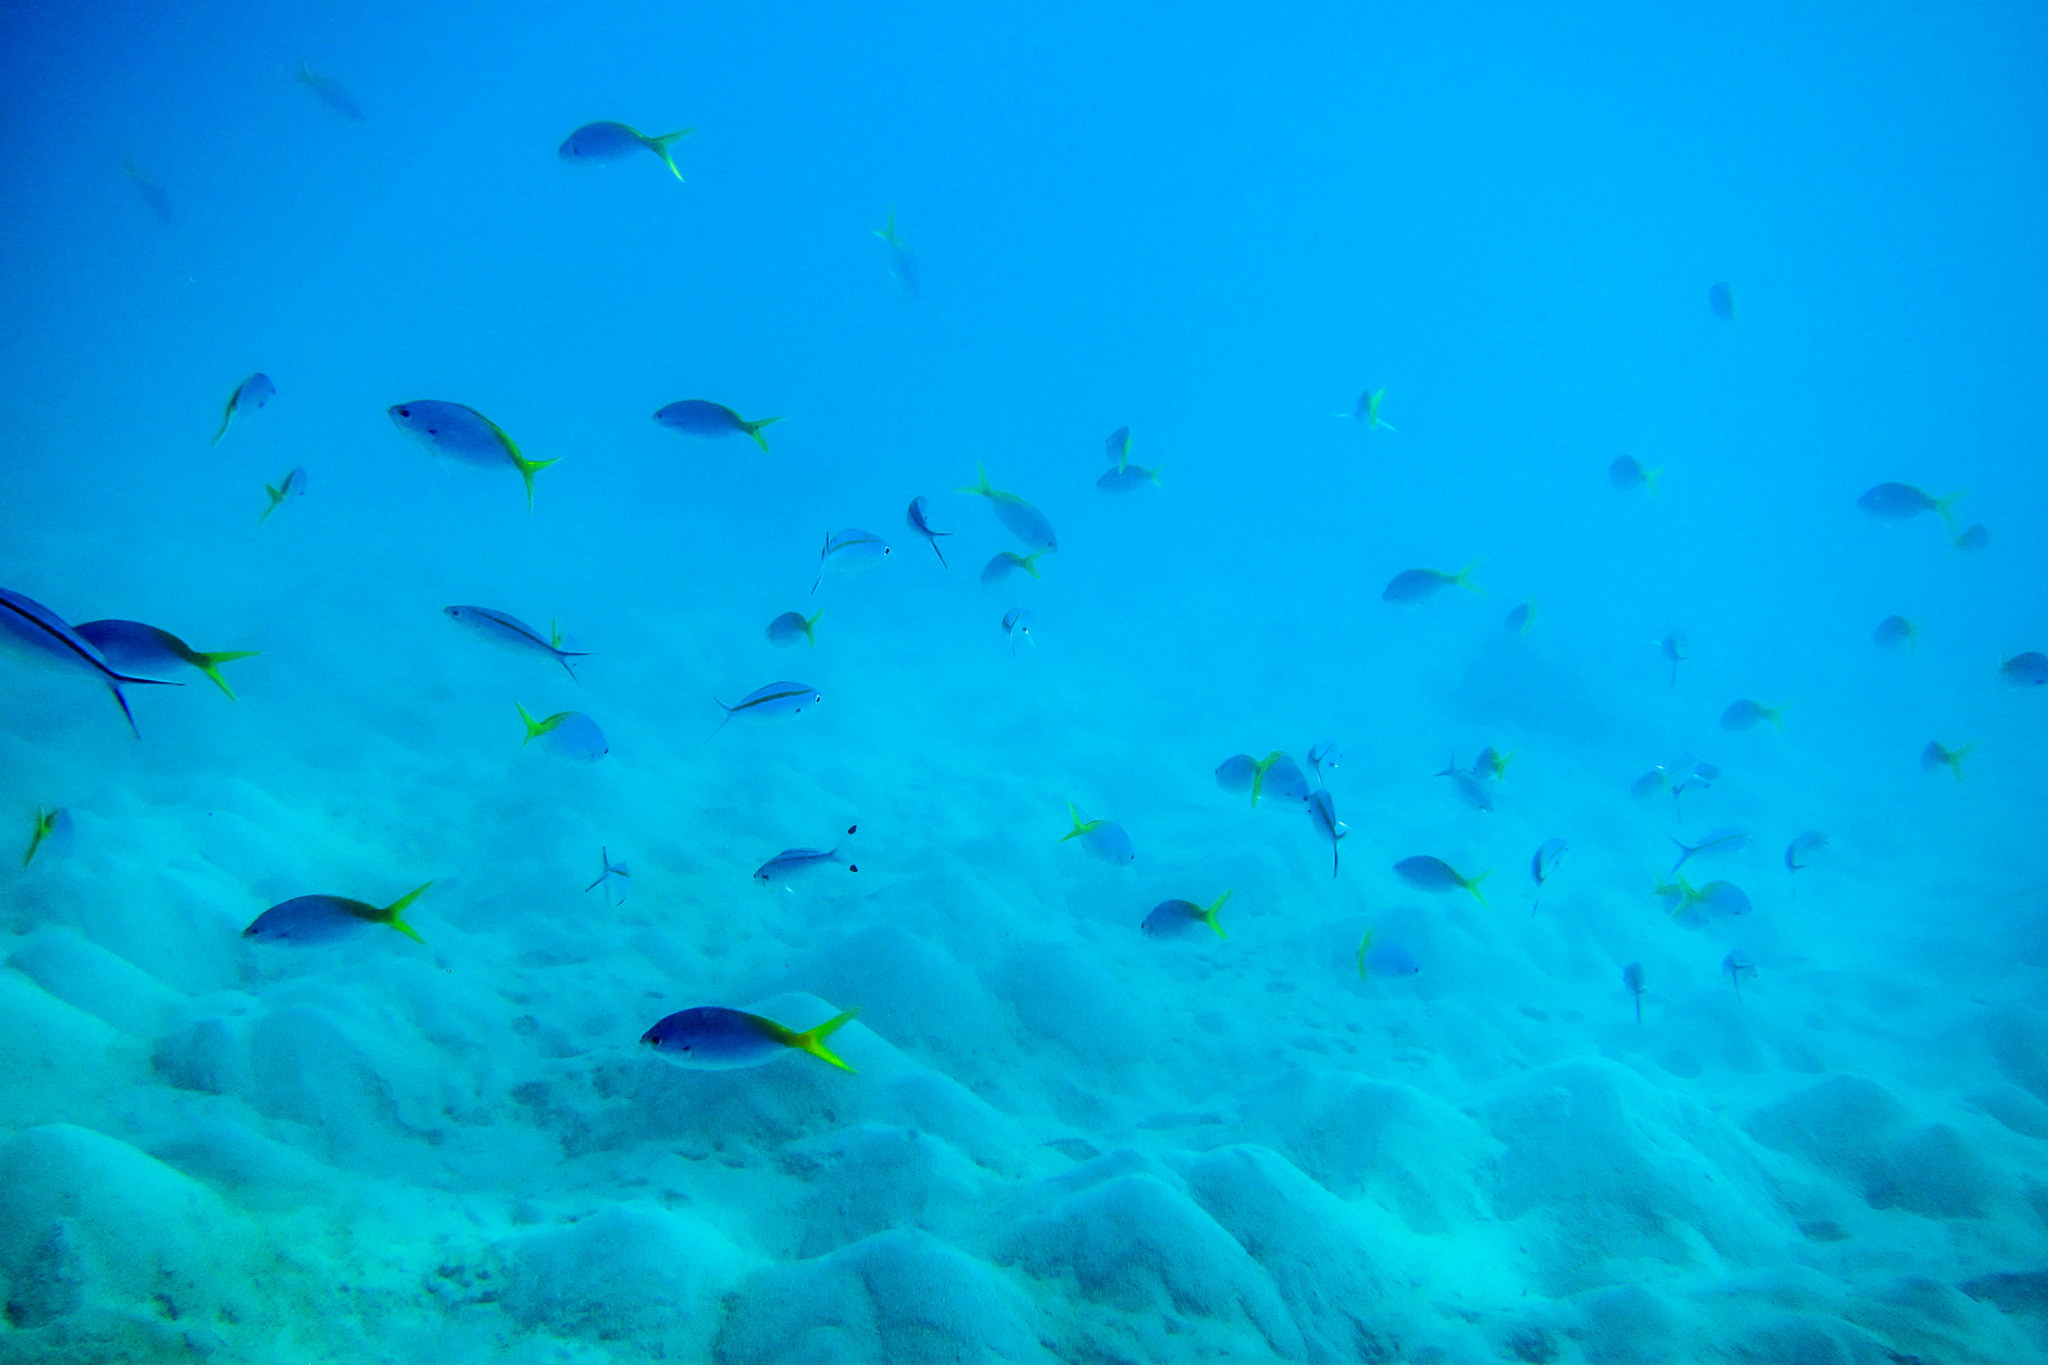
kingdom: Animalia
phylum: Chordata
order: Perciformes
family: Caesionidae
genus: Caesio
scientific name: Caesio teres
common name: Yellow and blueback fusilier
